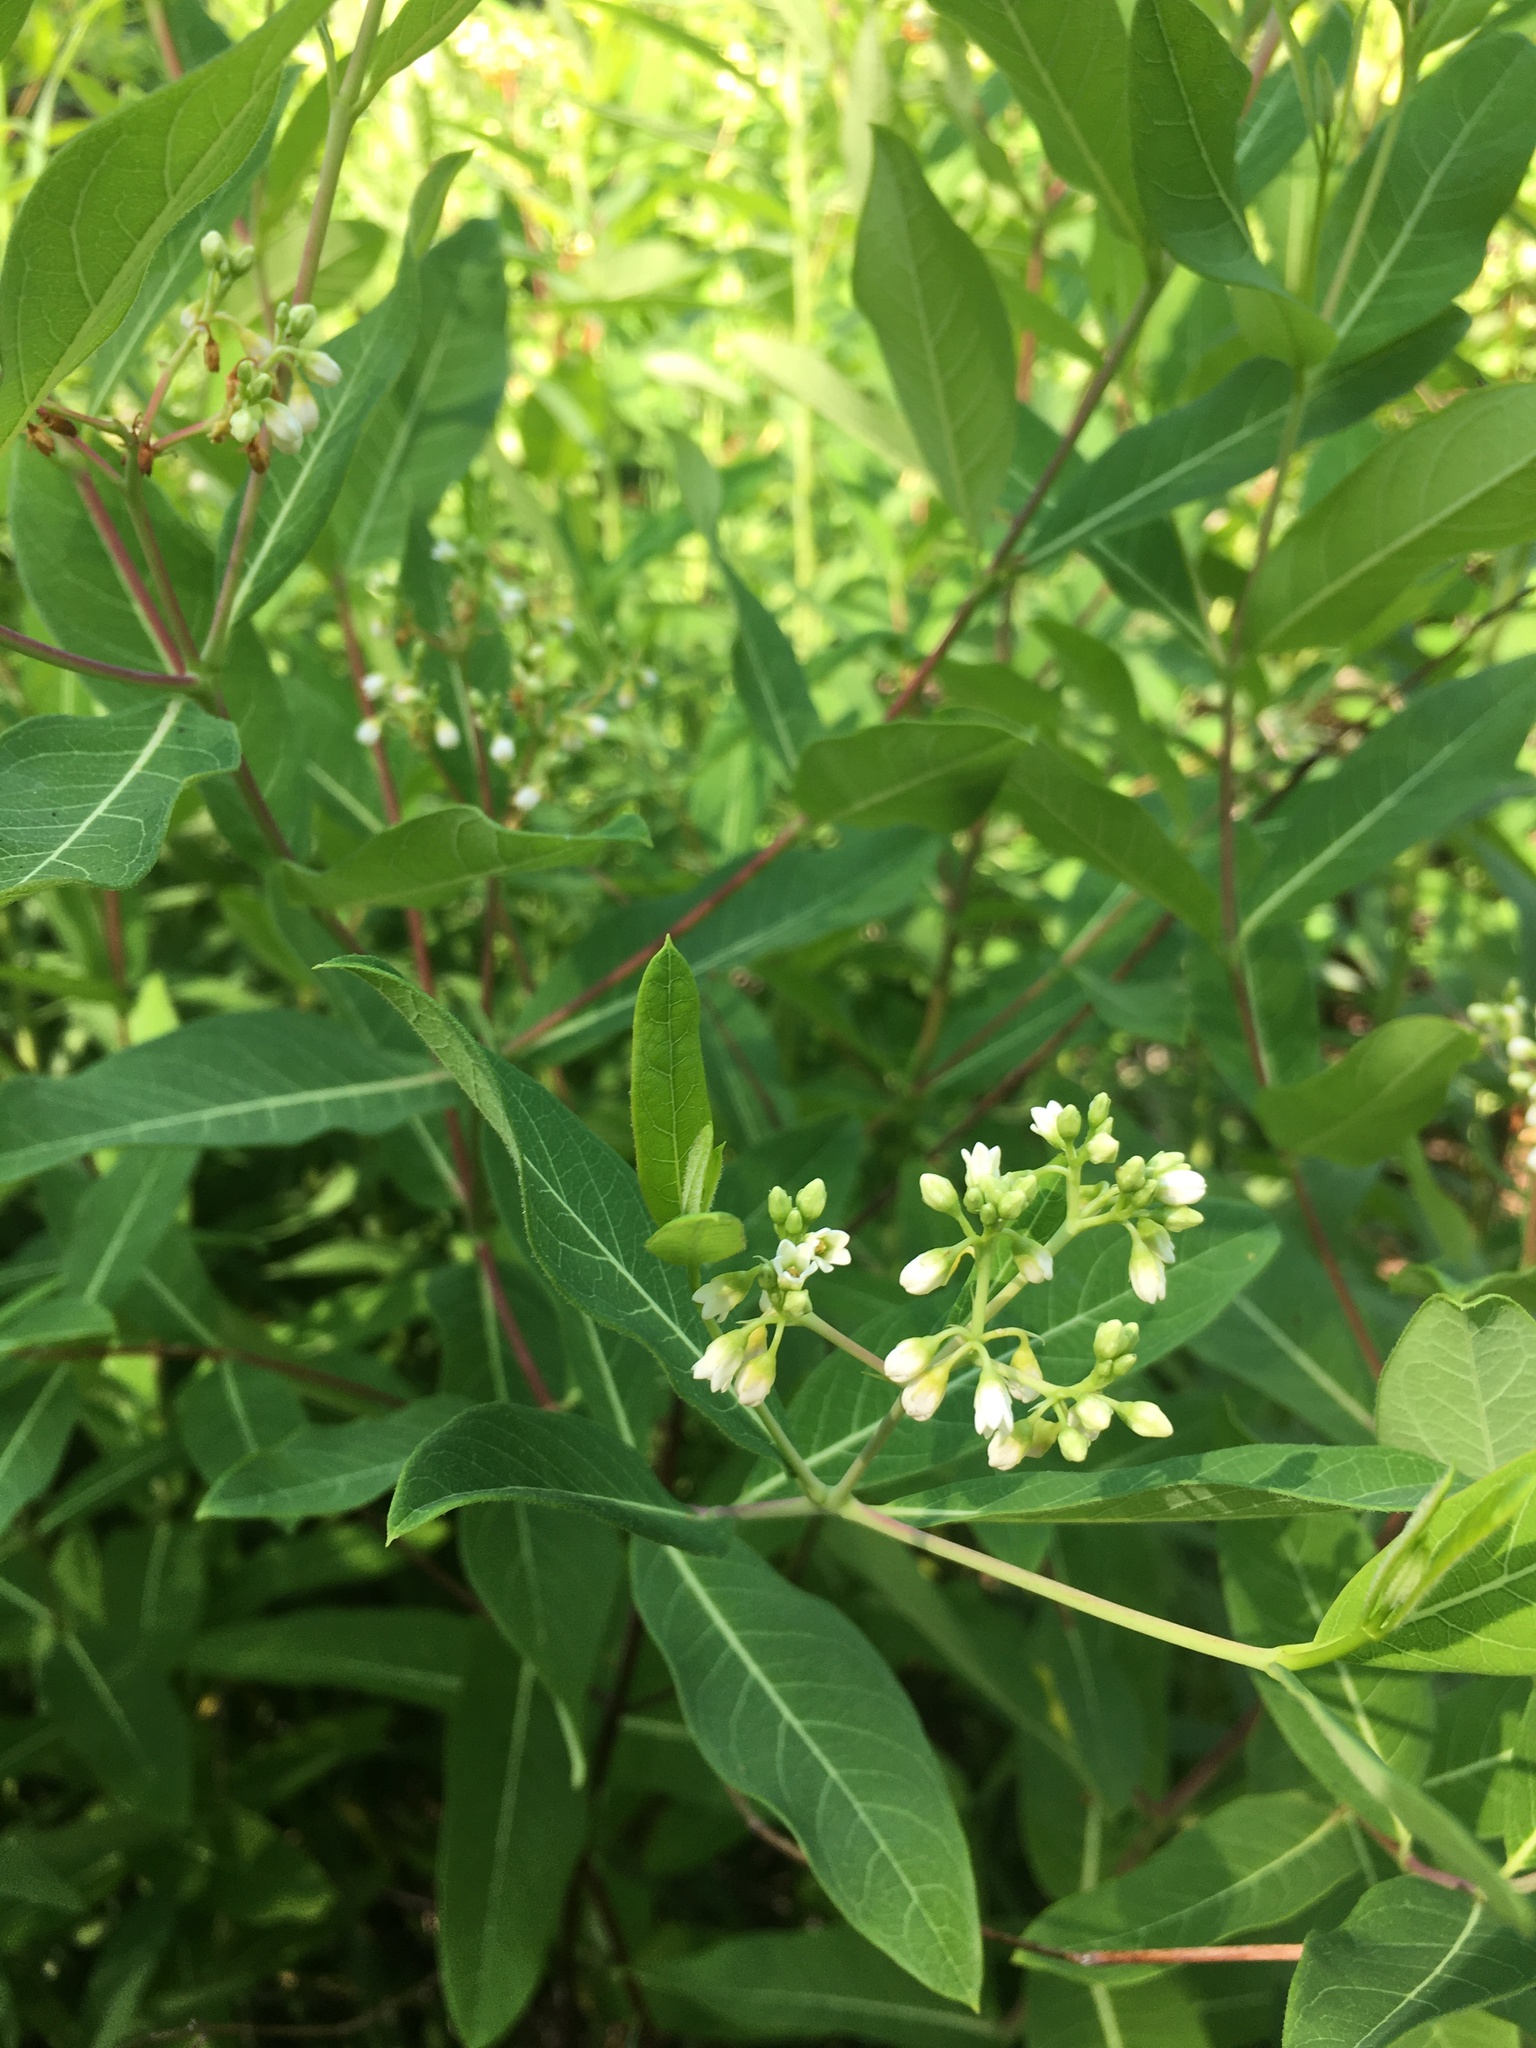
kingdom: Plantae
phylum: Tracheophyta
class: Magnoliopsida
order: Gentianales
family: Apocynaceae
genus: Apocynum
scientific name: Apocynum cannabinum
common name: Hemp dogbane
